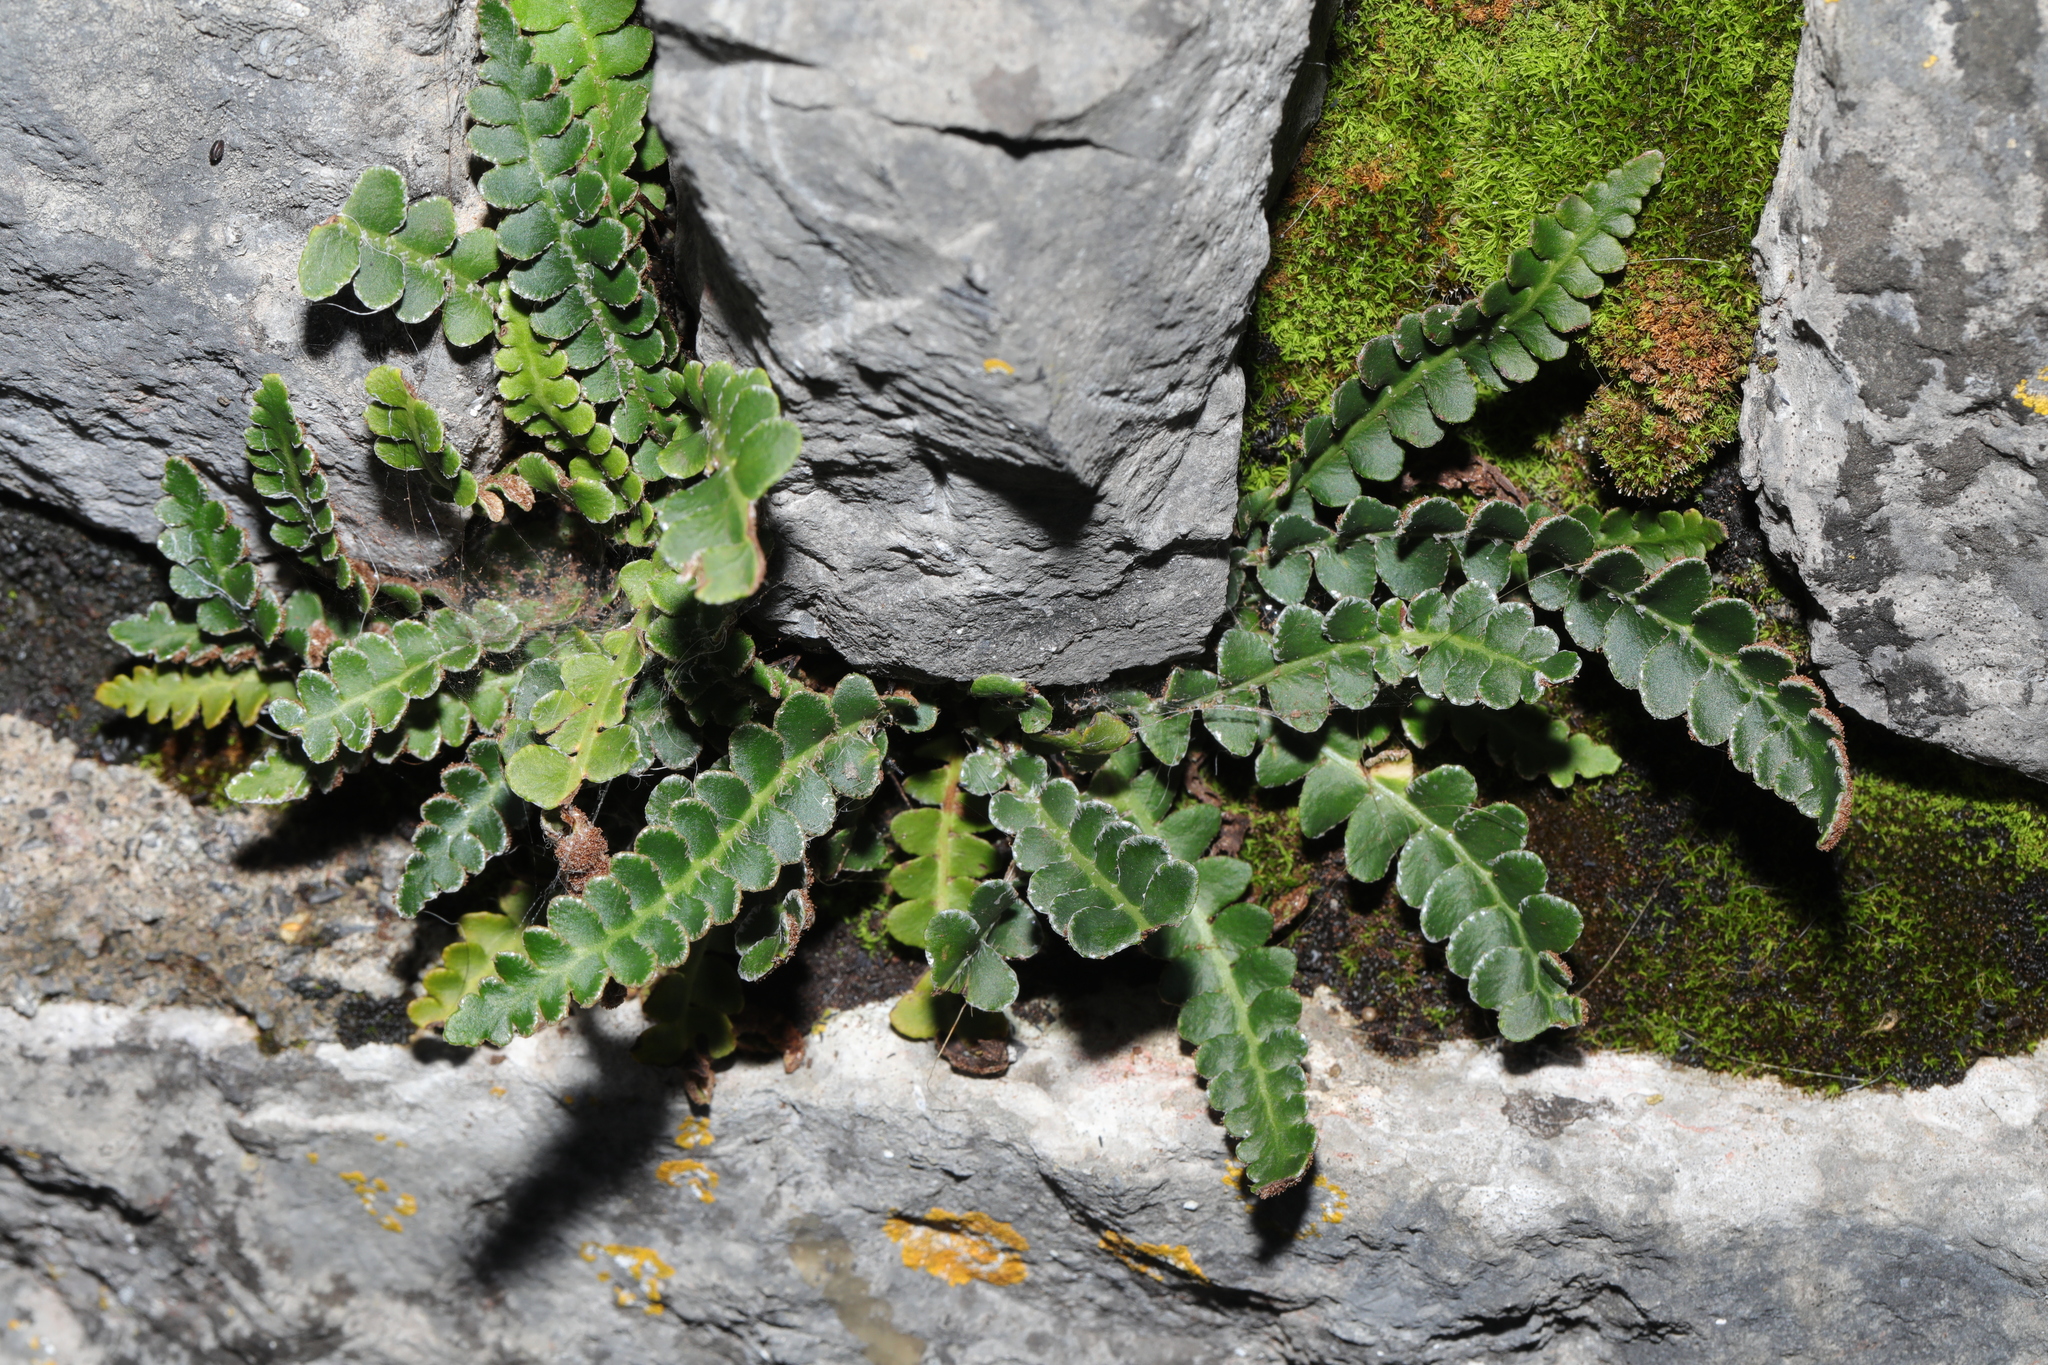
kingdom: Plantae
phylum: Tracheophyta
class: Polypodiopsida
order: Polypodiales
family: Aspleniaceae
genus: Asplenium
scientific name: Asplenium ceterach
